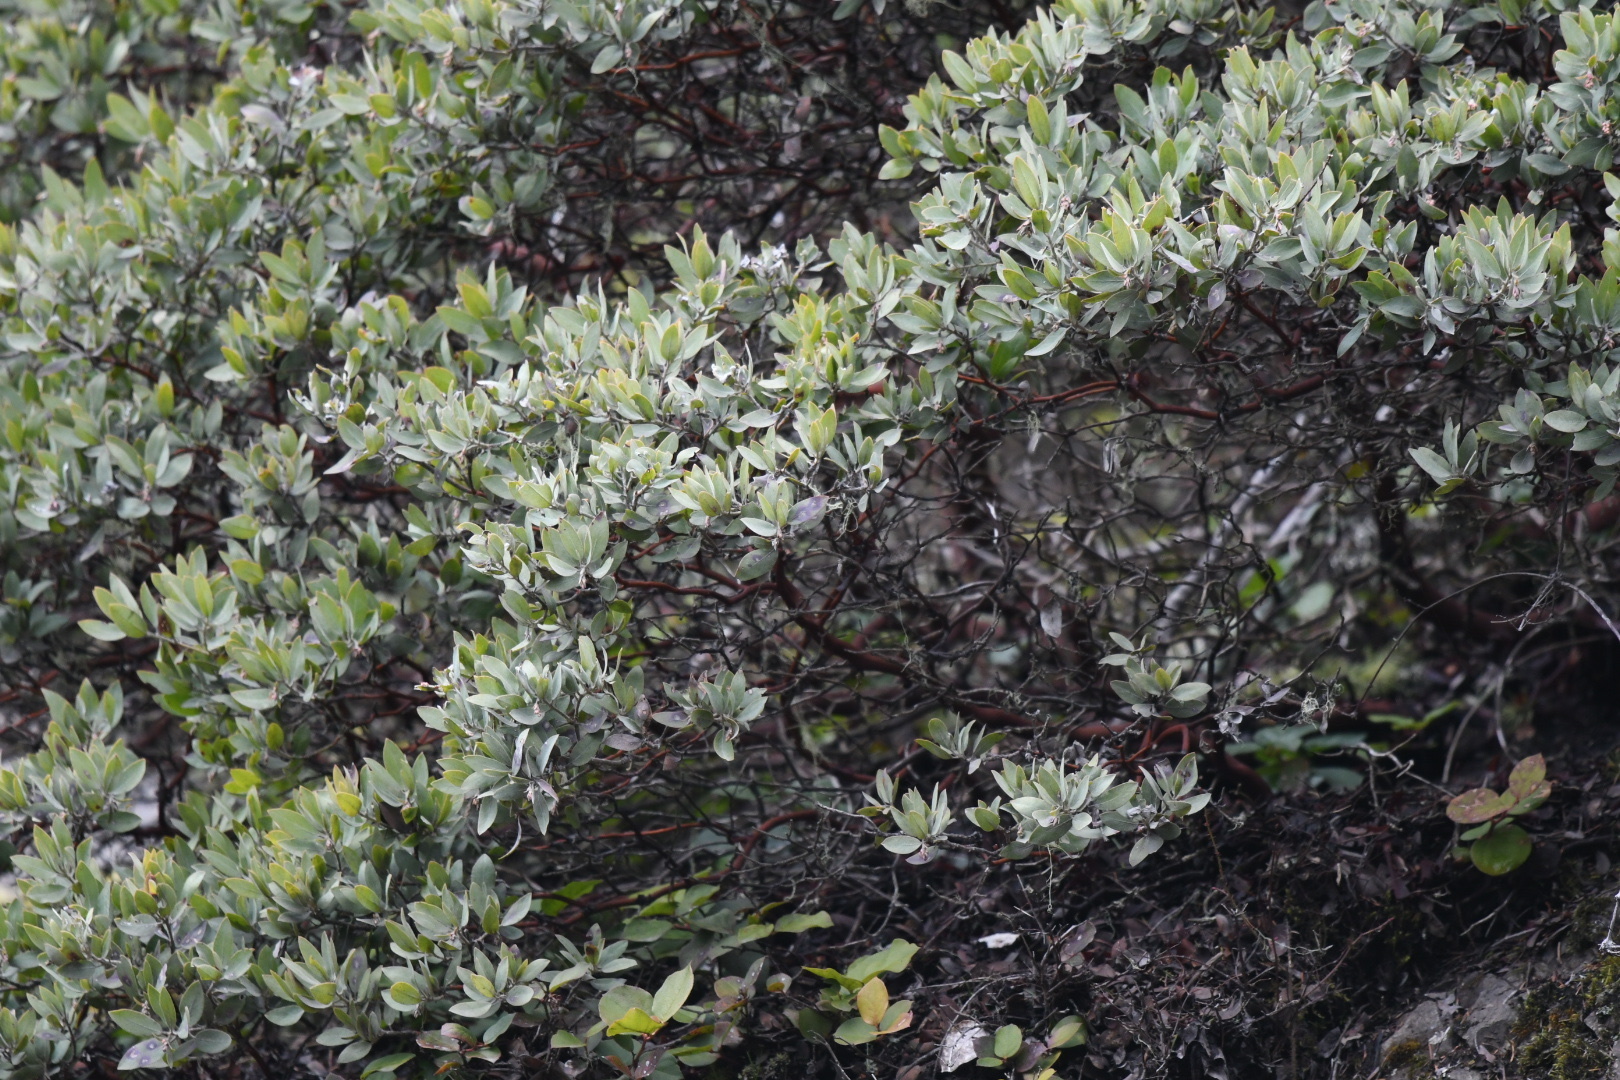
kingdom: Plantae
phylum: Tracheophyta
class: Magnoliopsida
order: Ericales
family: Ericaceae
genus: Arctostaphylos
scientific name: Arctostaphylos columbiana
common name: Bristly bearberry
